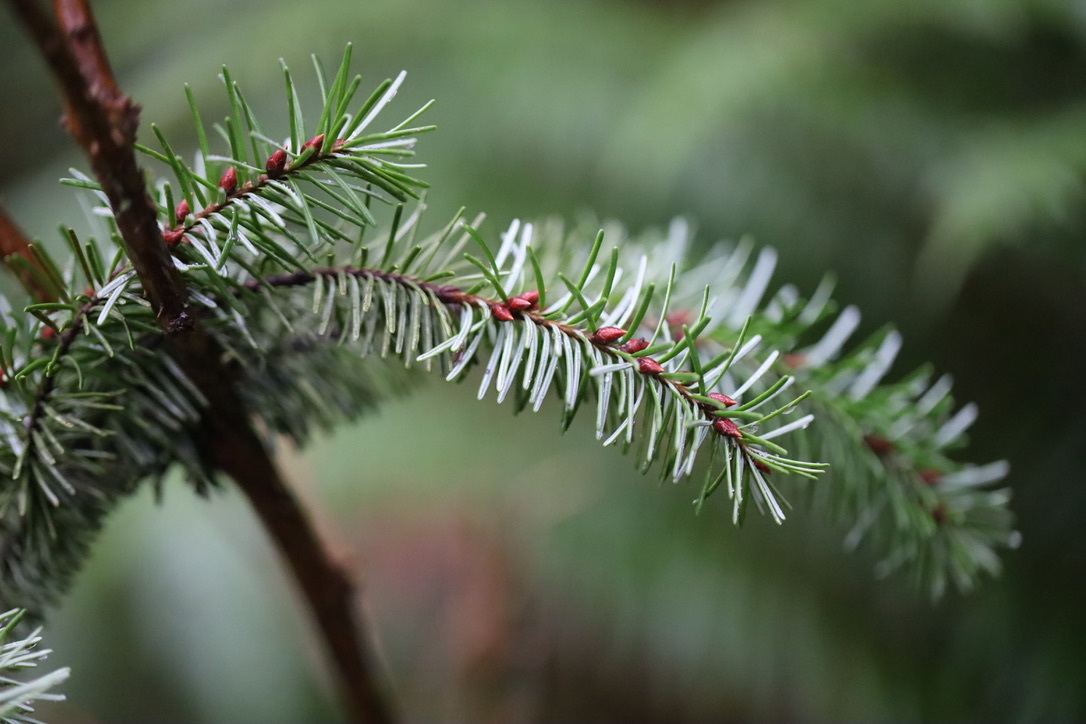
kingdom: Plantae
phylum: Tracheophyta
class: Pinopsida
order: Pinales
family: Pinaceae
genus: Pseudotsuga
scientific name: Pseudotsuga menziesii
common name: Douglas fir
